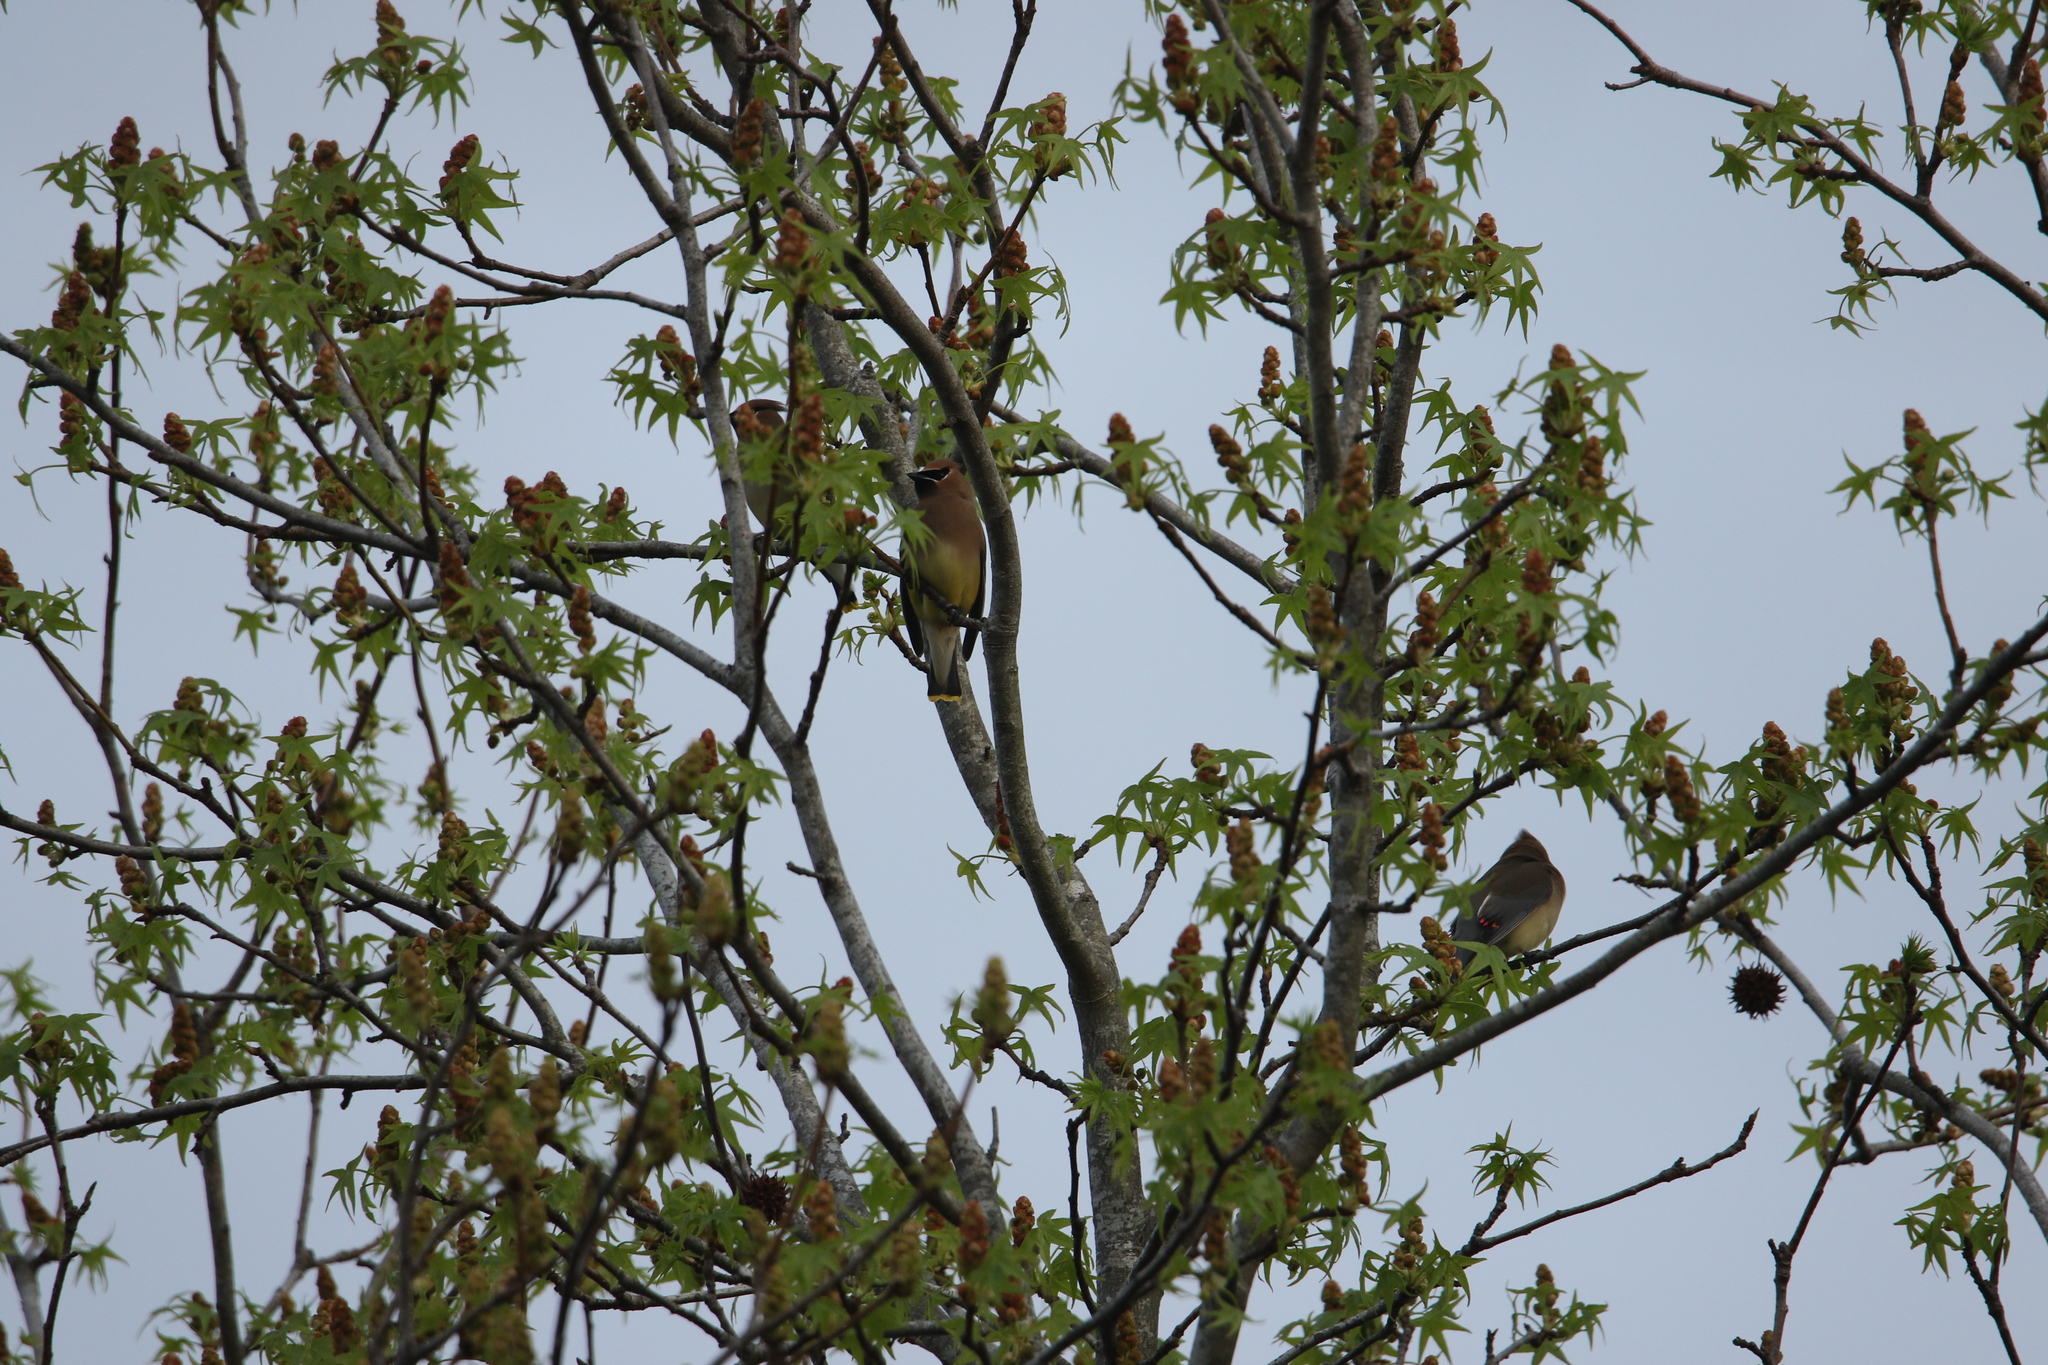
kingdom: Animalia
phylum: Chordata
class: Aves
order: Passeriformes
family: Bombycillidae
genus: Bombycilla
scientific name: Bombycilla cedrorum
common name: Cedar waxwing
